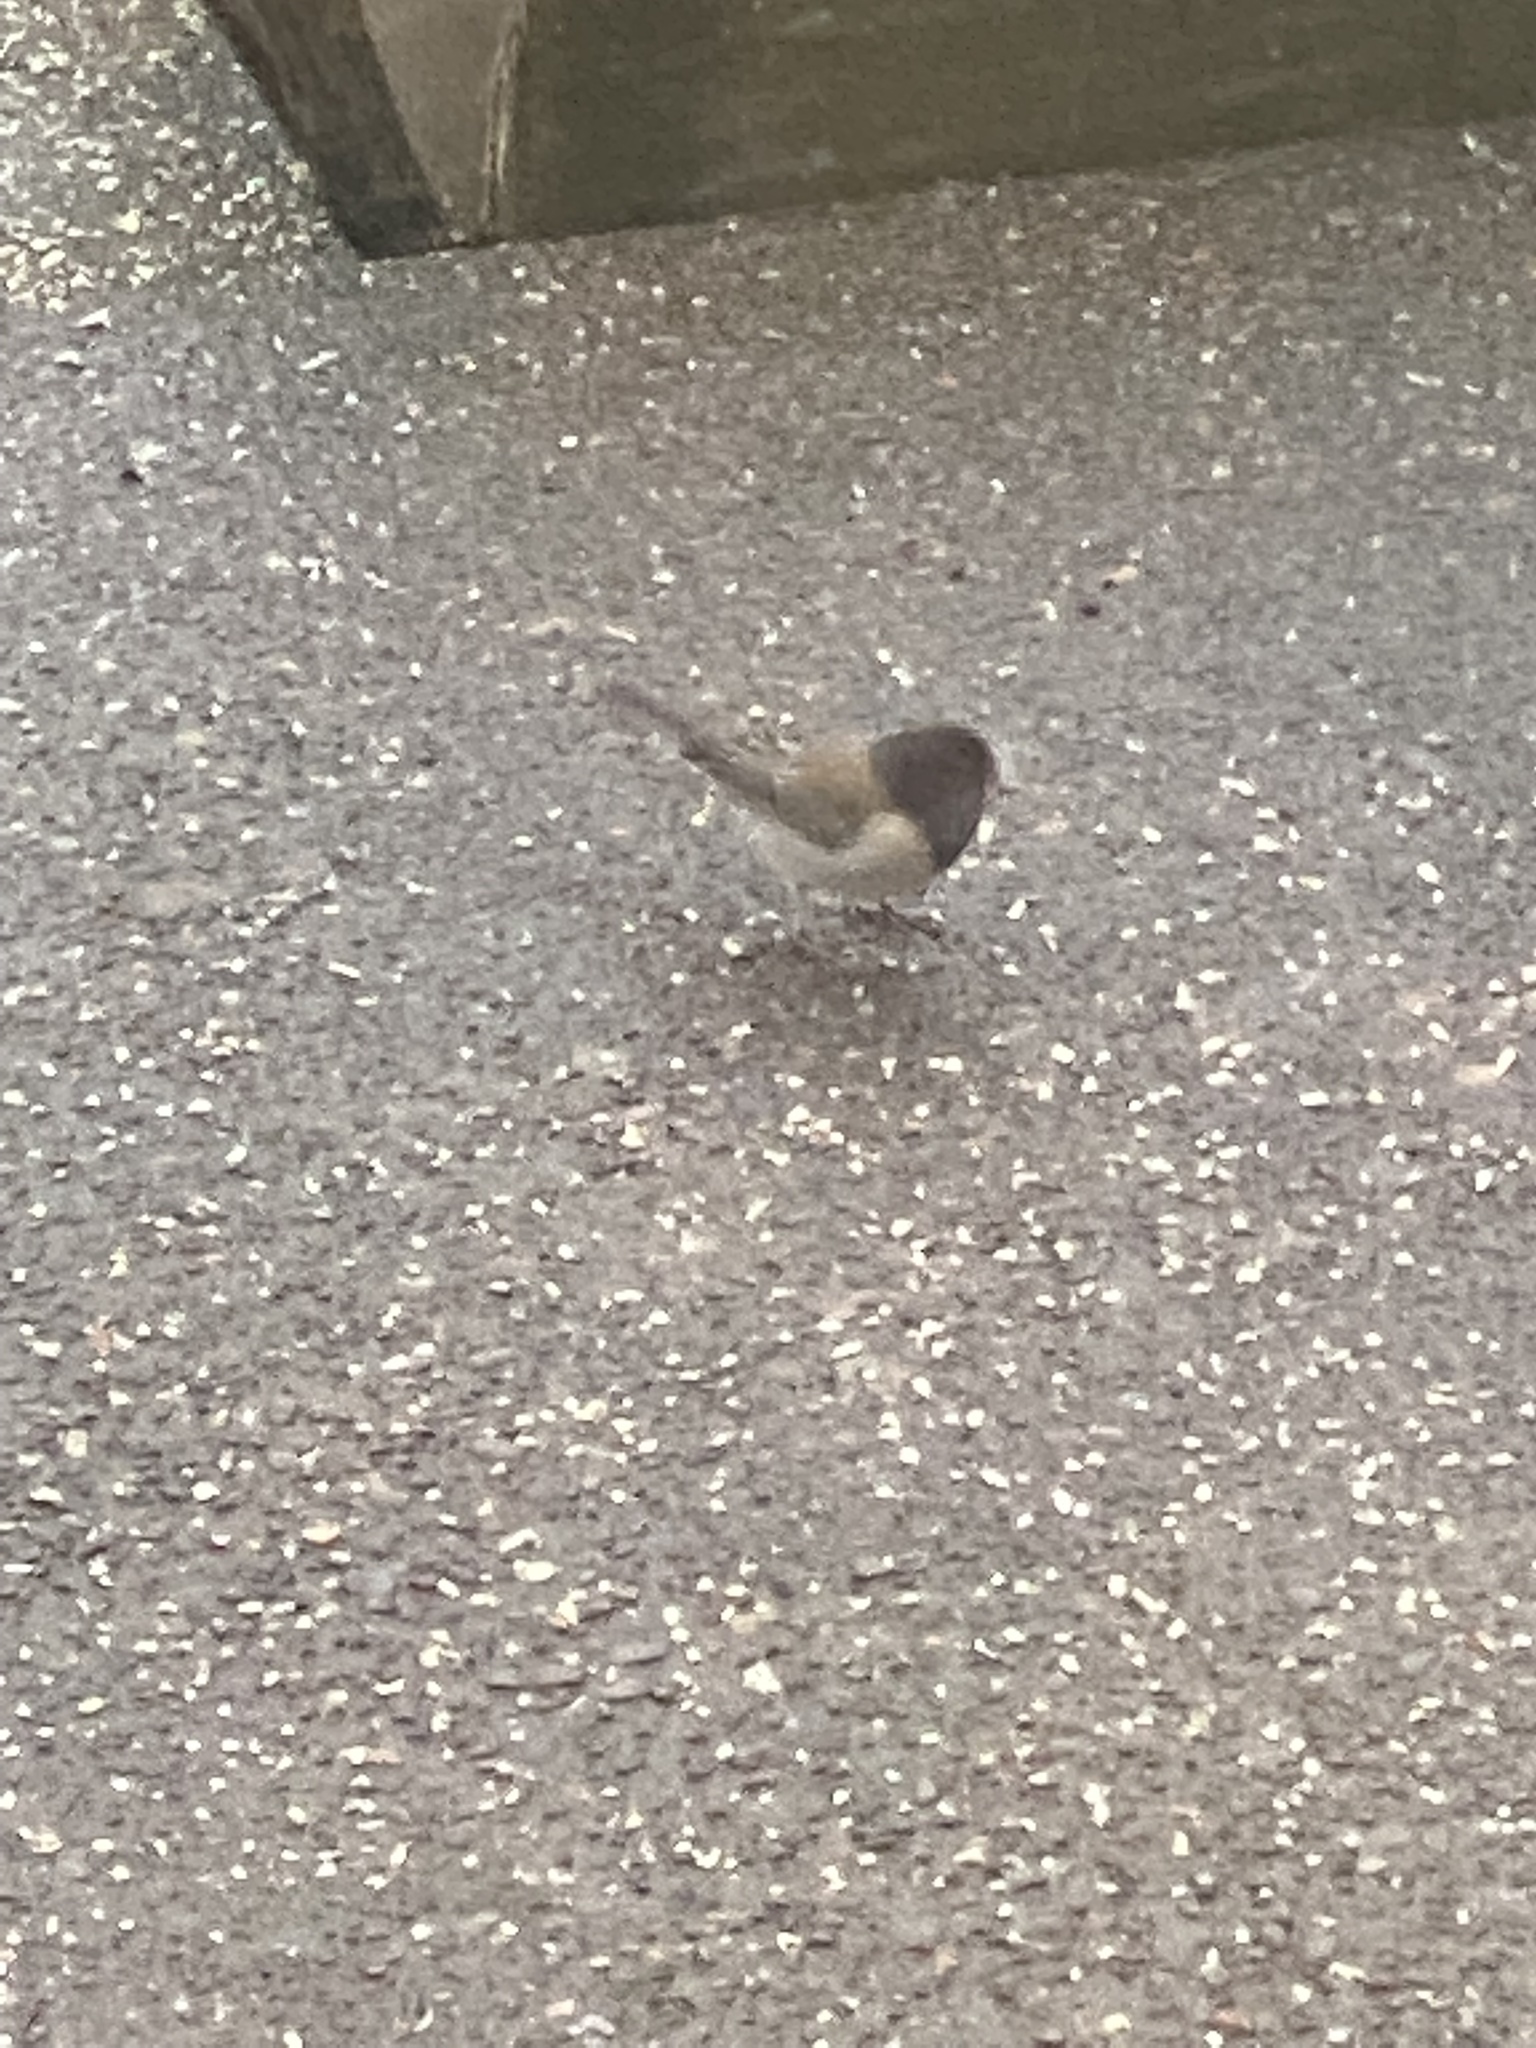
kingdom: Animalia
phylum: Chordata
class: Aves
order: Passeriformes
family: Passerellidae
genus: Junco
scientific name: Junco hyemalis
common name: Dark-eyed junco
